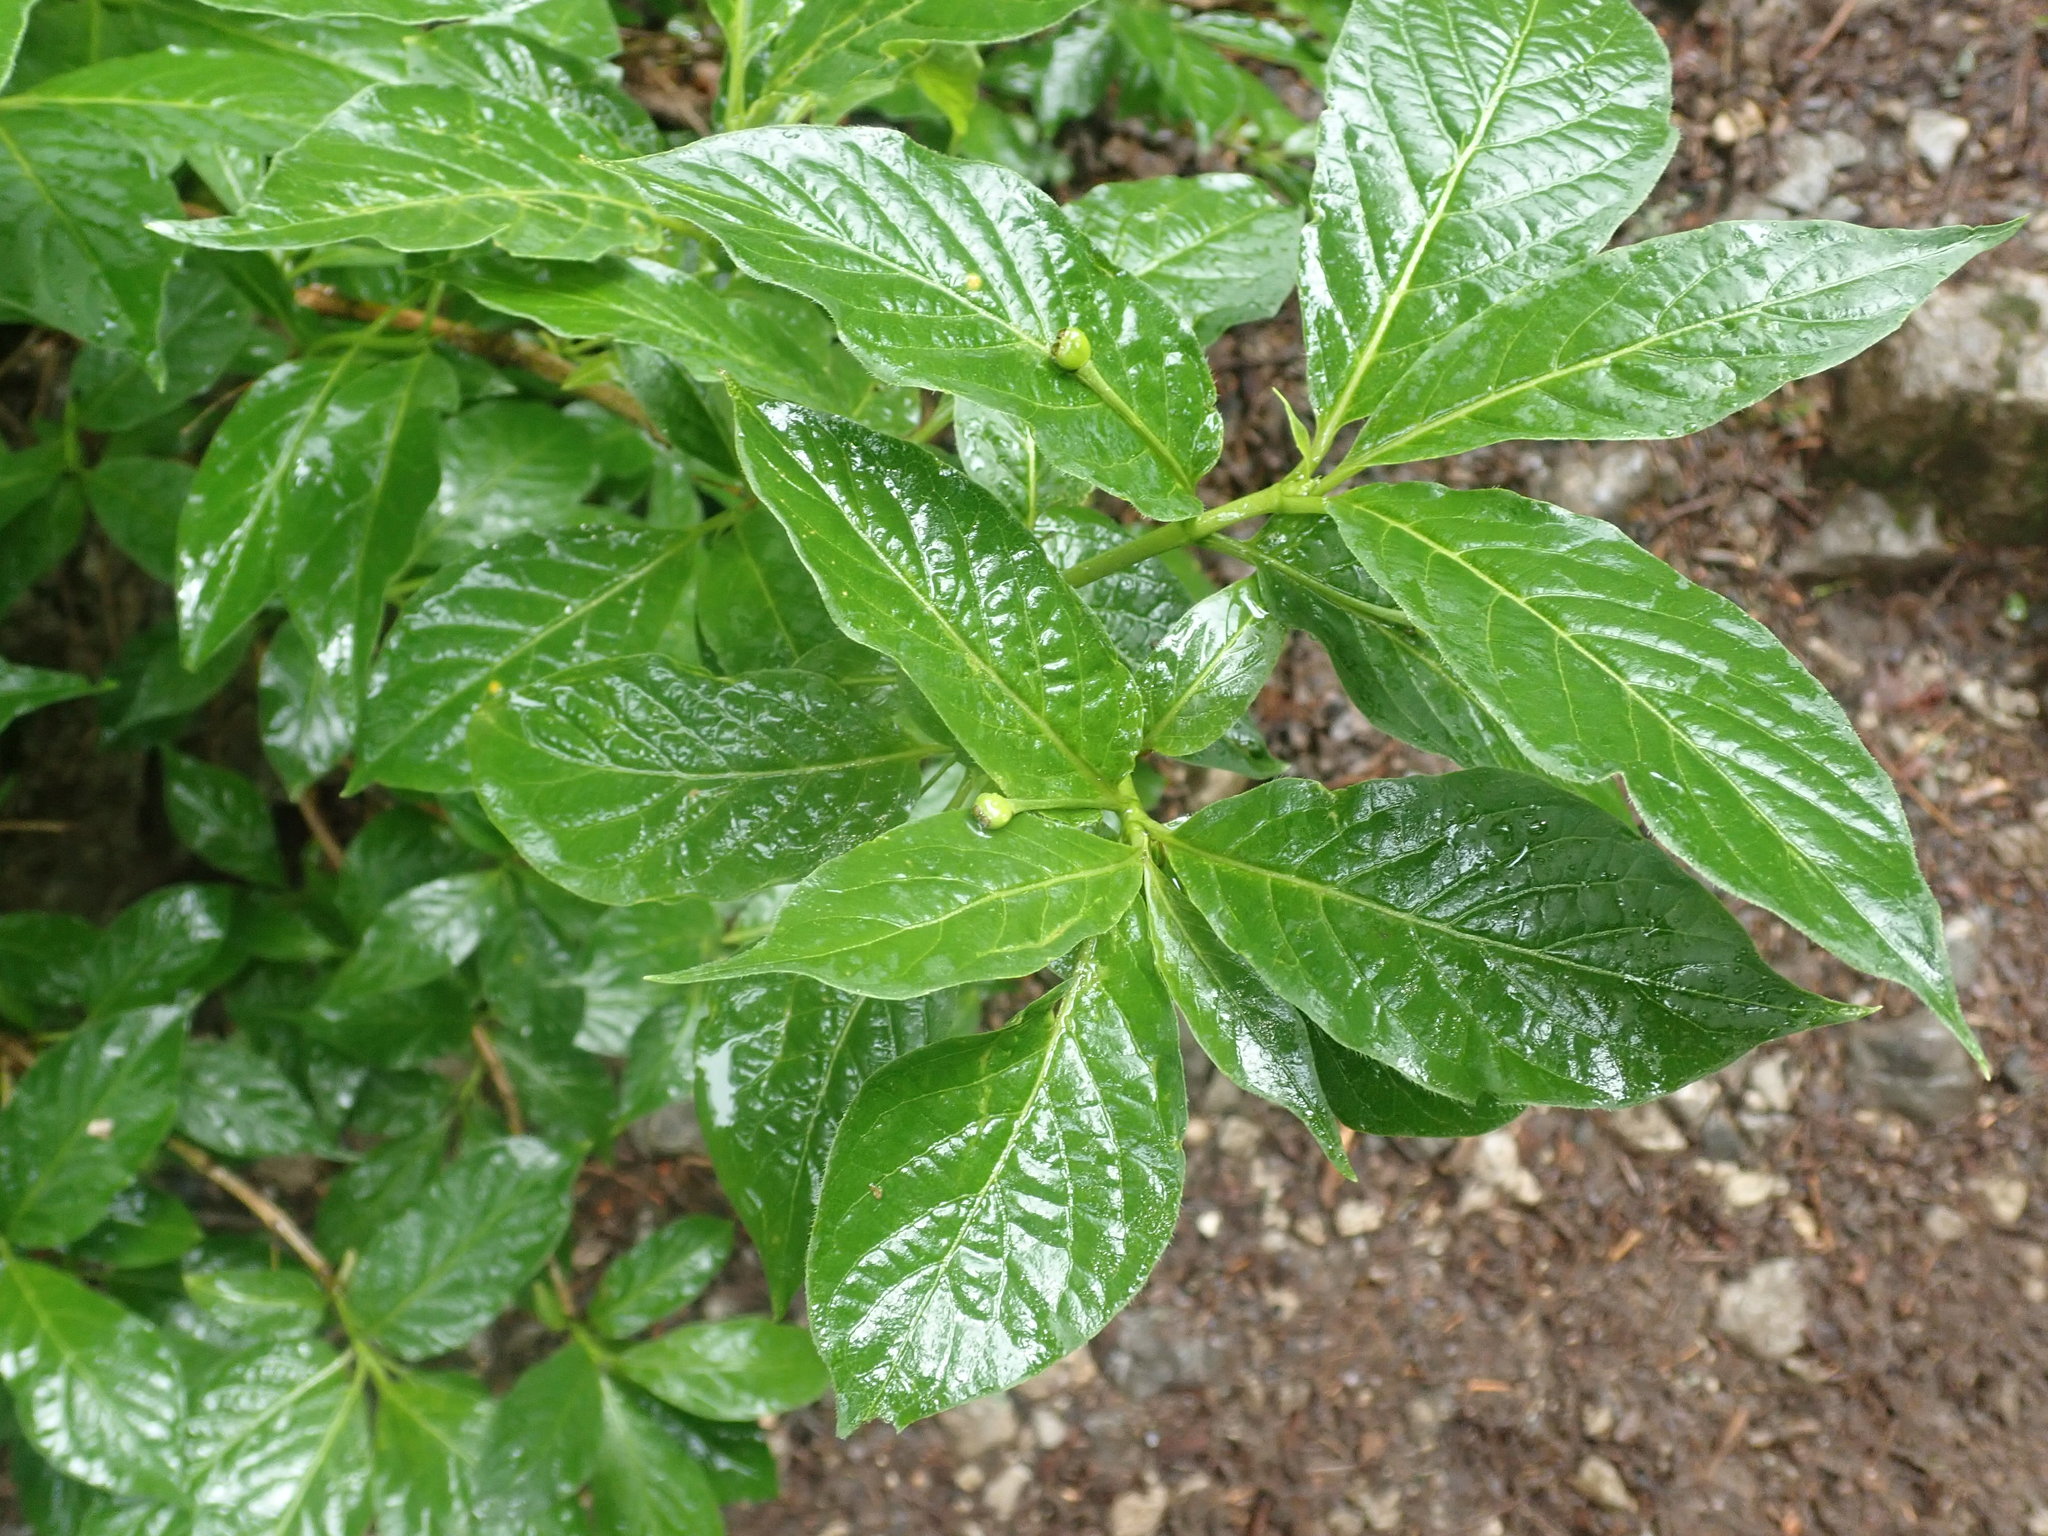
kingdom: Plantae
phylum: Tracheophyta
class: Magnoliopsida
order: Dipsacales
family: Caprifoliaceae
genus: Lonicera
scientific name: Lonicera alpigena
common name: Alpine honeysuckle
